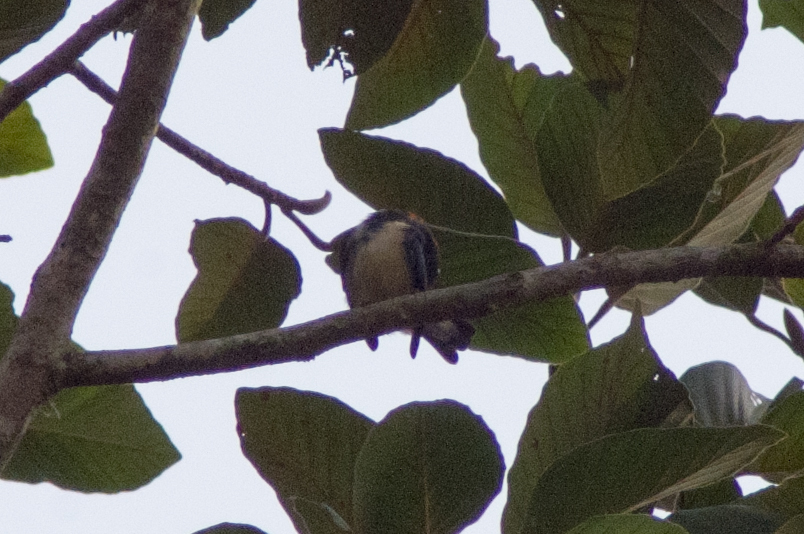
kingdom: Animalia
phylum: Chordata
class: Aves
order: Passeriformes
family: Dicaeidae
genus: Dicaeum
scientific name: Dicaeum cruentatum
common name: Scarlet-backed flowerpecker
